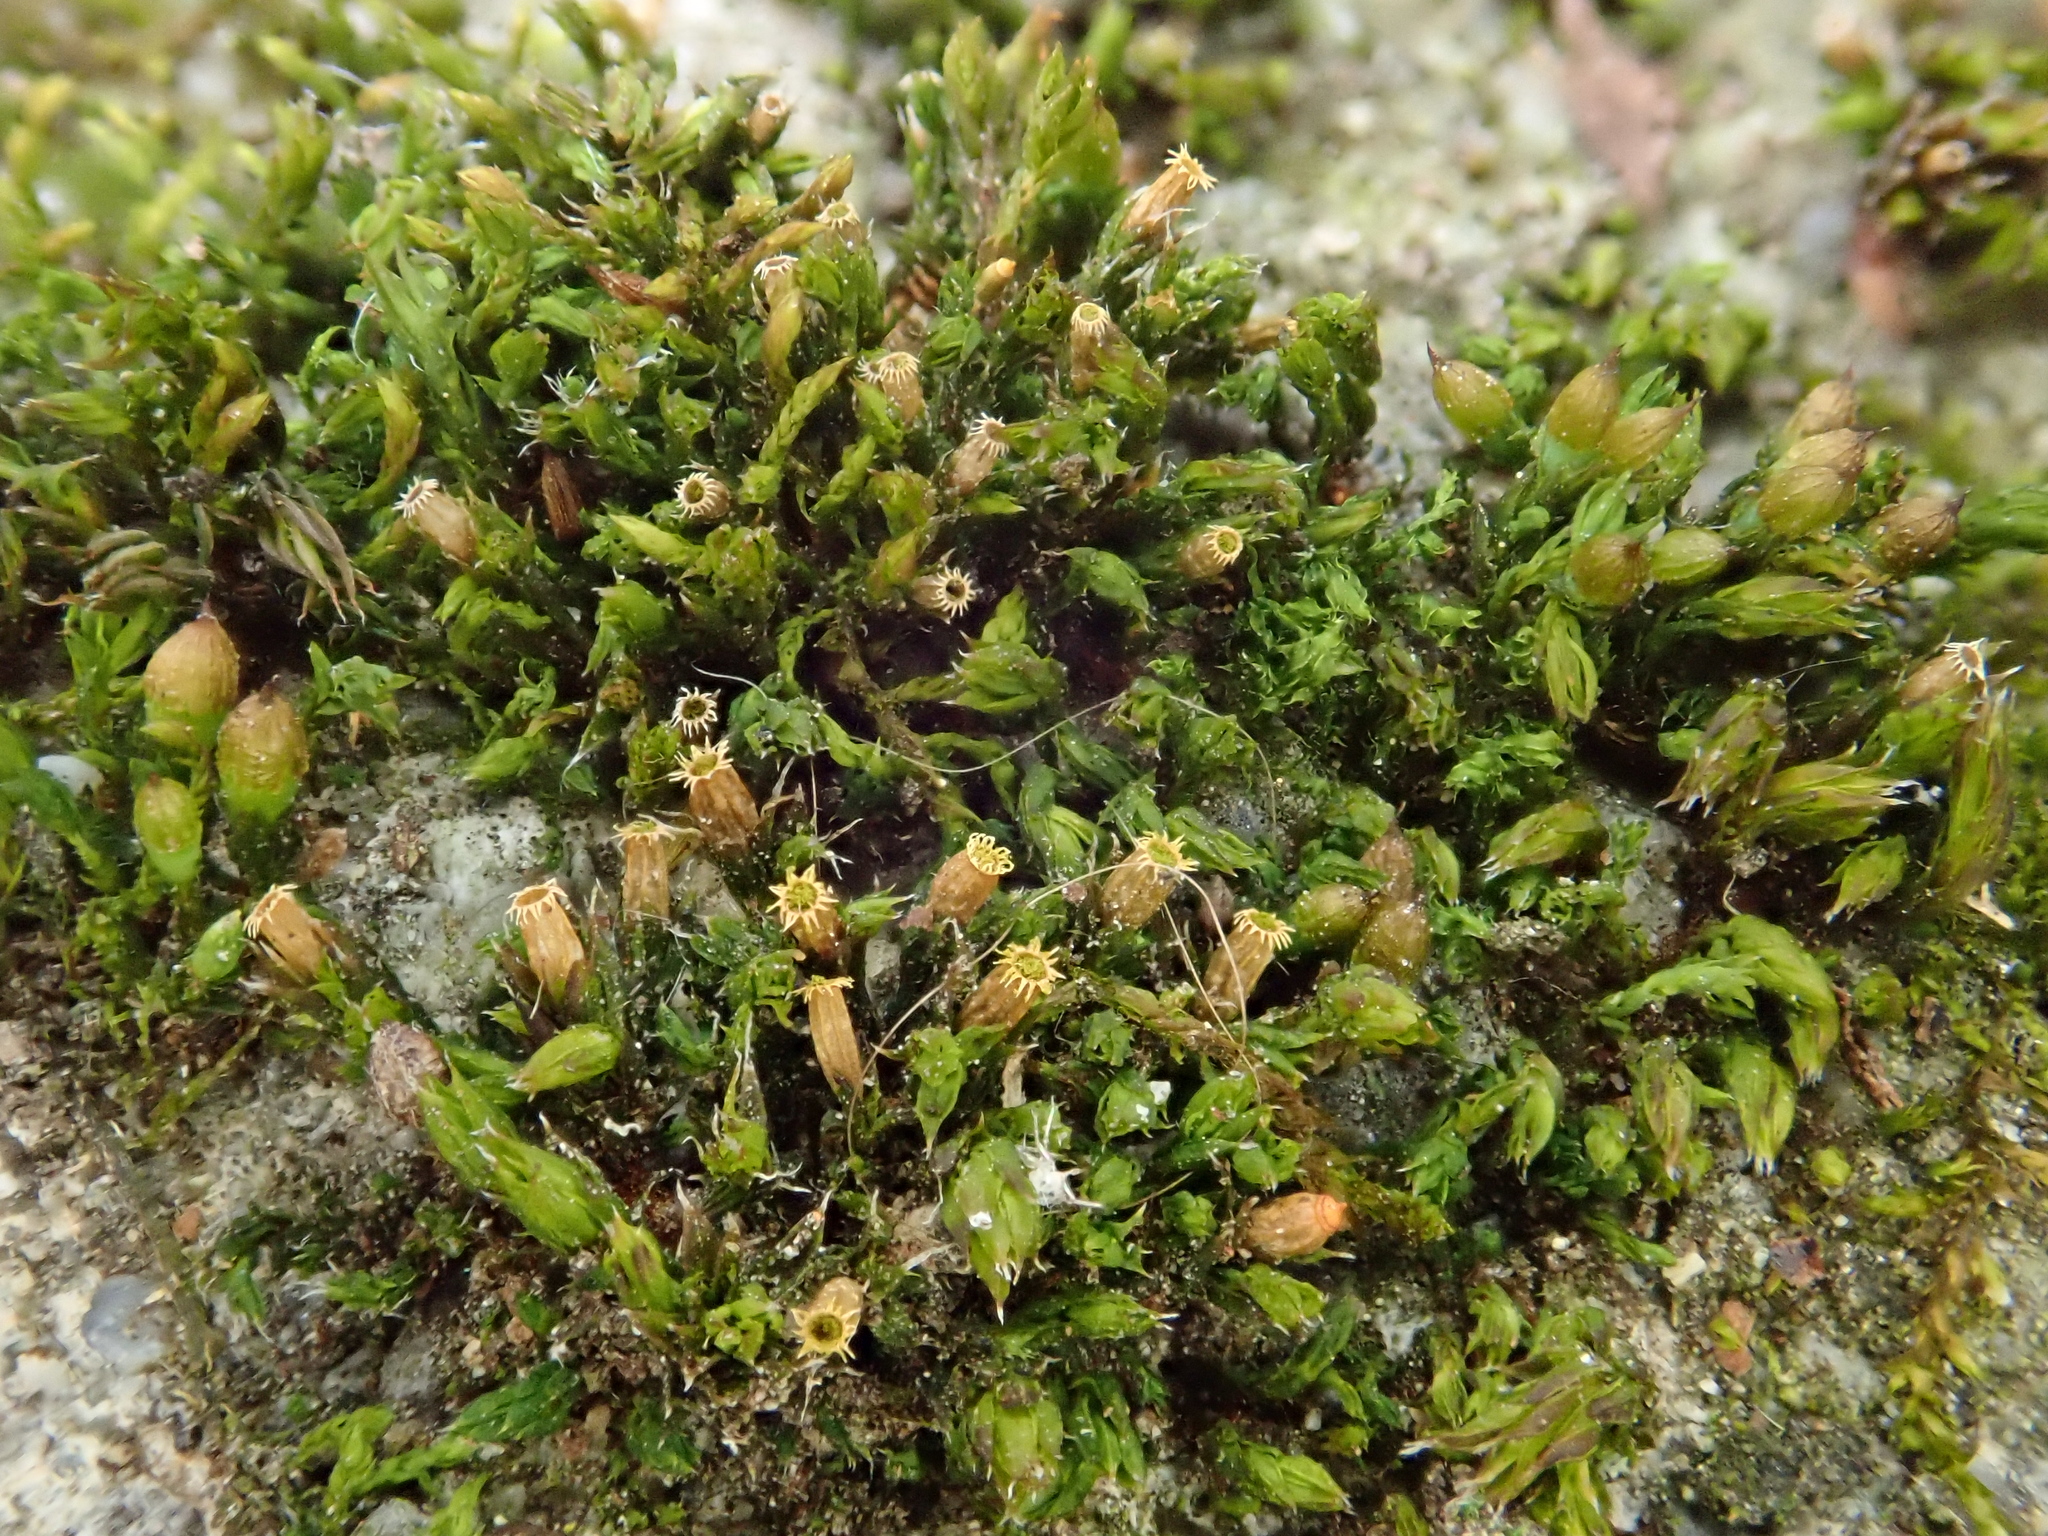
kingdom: Plantae
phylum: Bryophyta
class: Bryopsida
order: Orthotrichales
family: Orthotrichaceae
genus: Orthotrichum
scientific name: Orthotrichum diaphanum
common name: White-tipped bristle-moss
